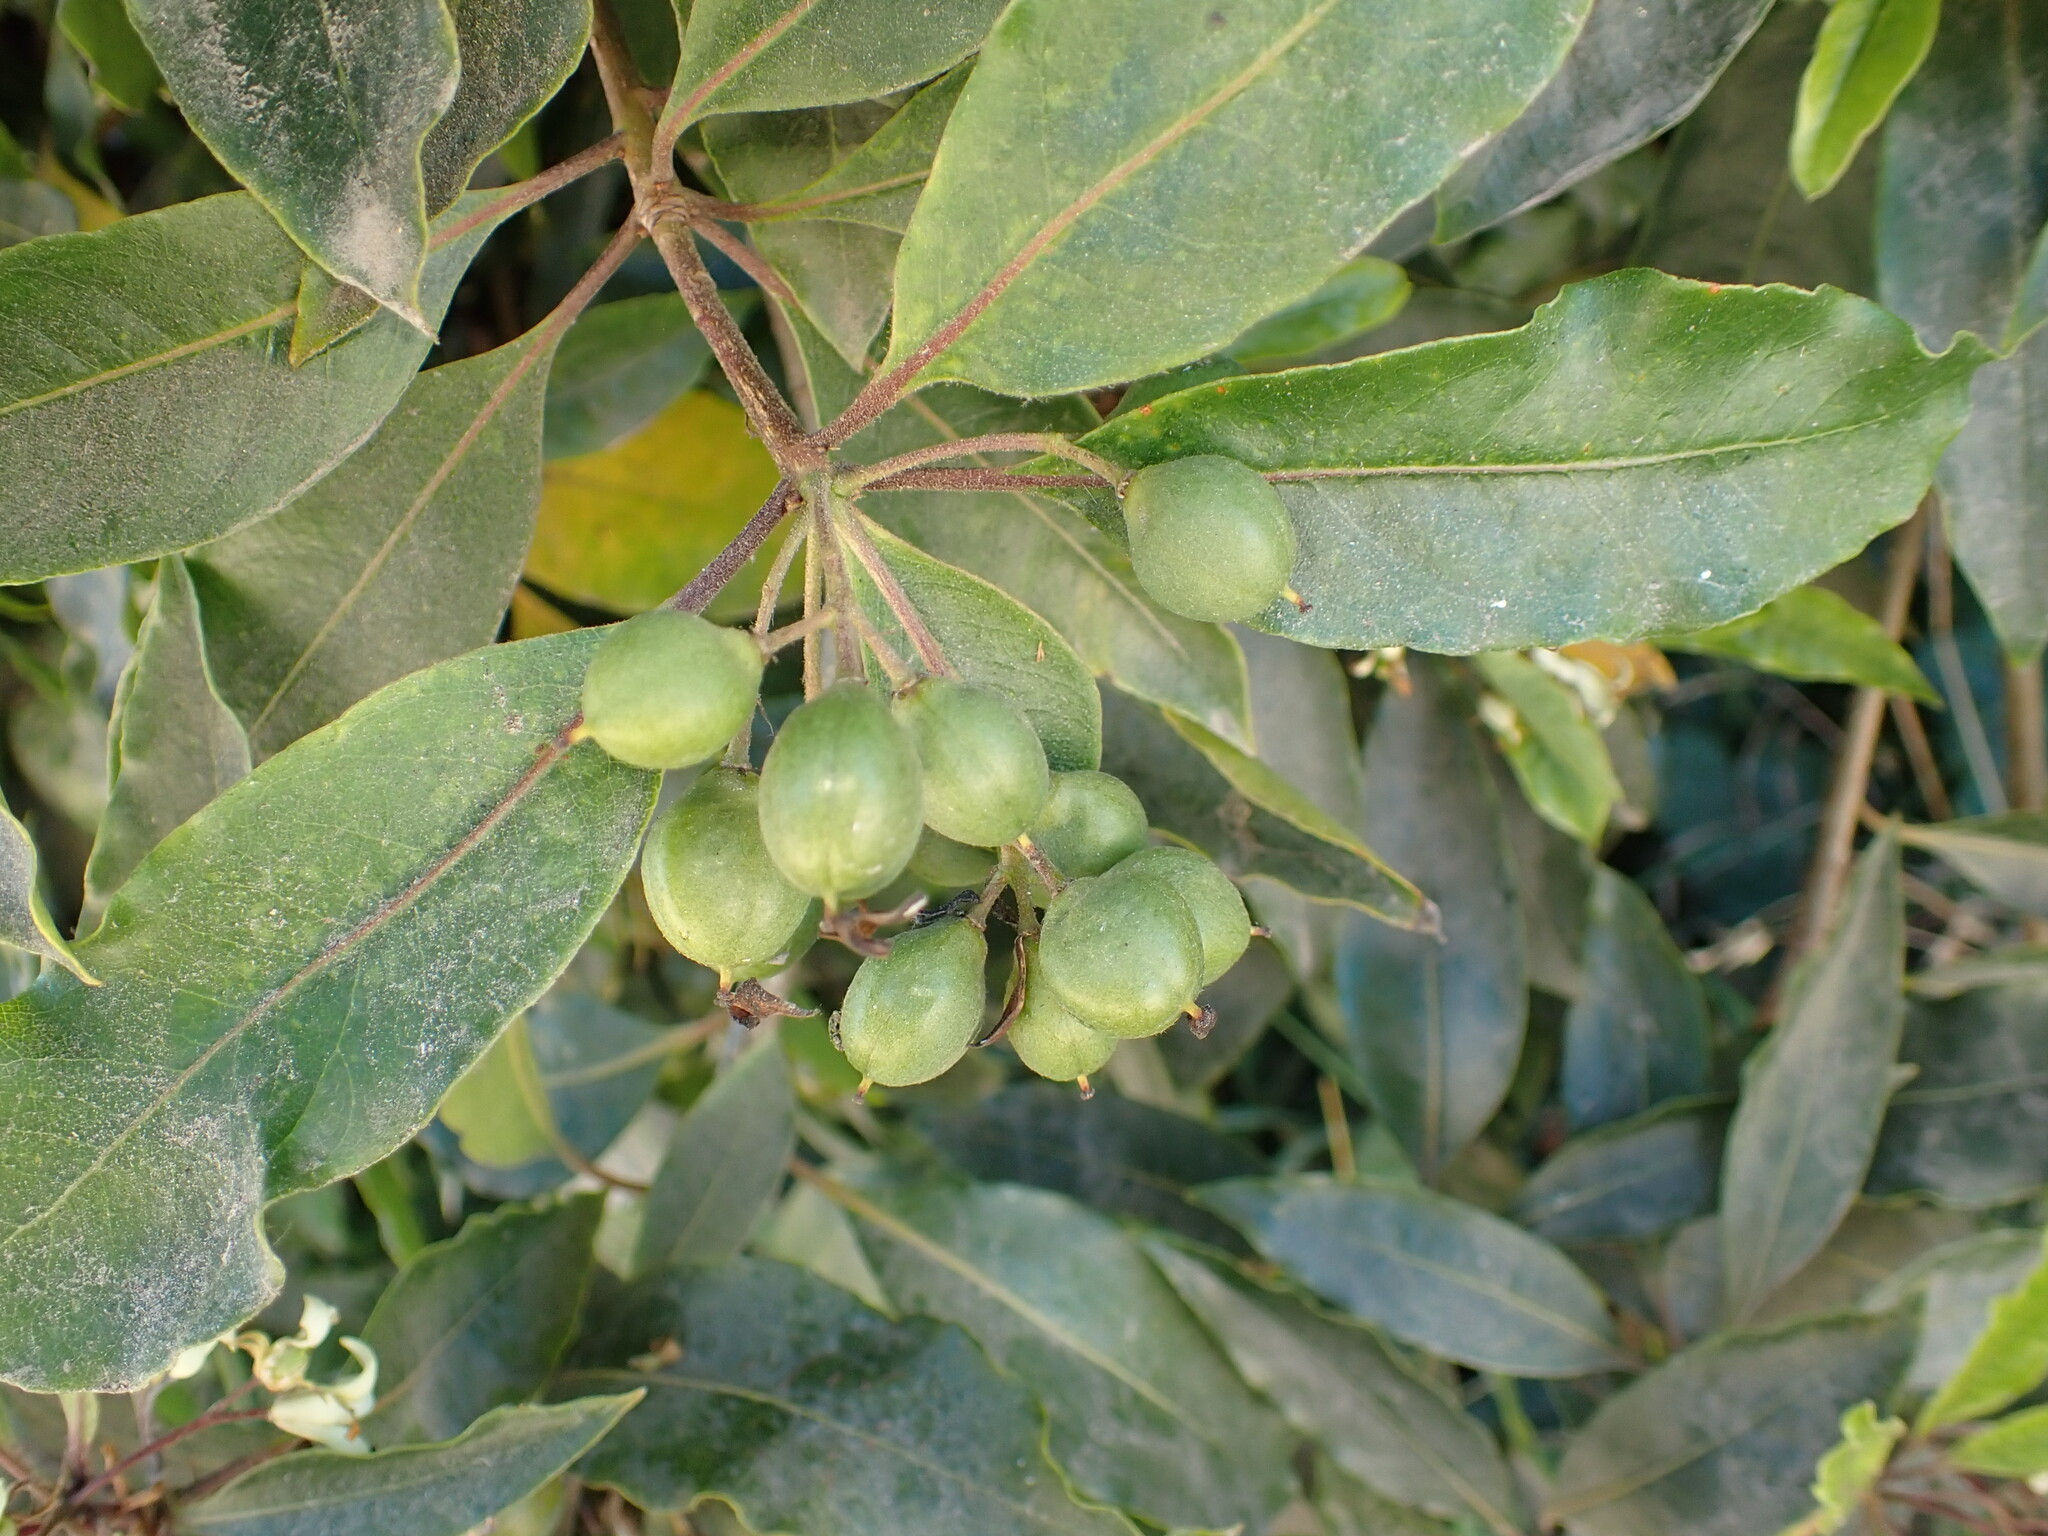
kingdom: Plantae
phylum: Tracheophyta
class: Magnoliopsida
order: Apiales
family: Pittosporaceae
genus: Pittosporum
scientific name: Pittosporum undulatum
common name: Australian cheesewood
